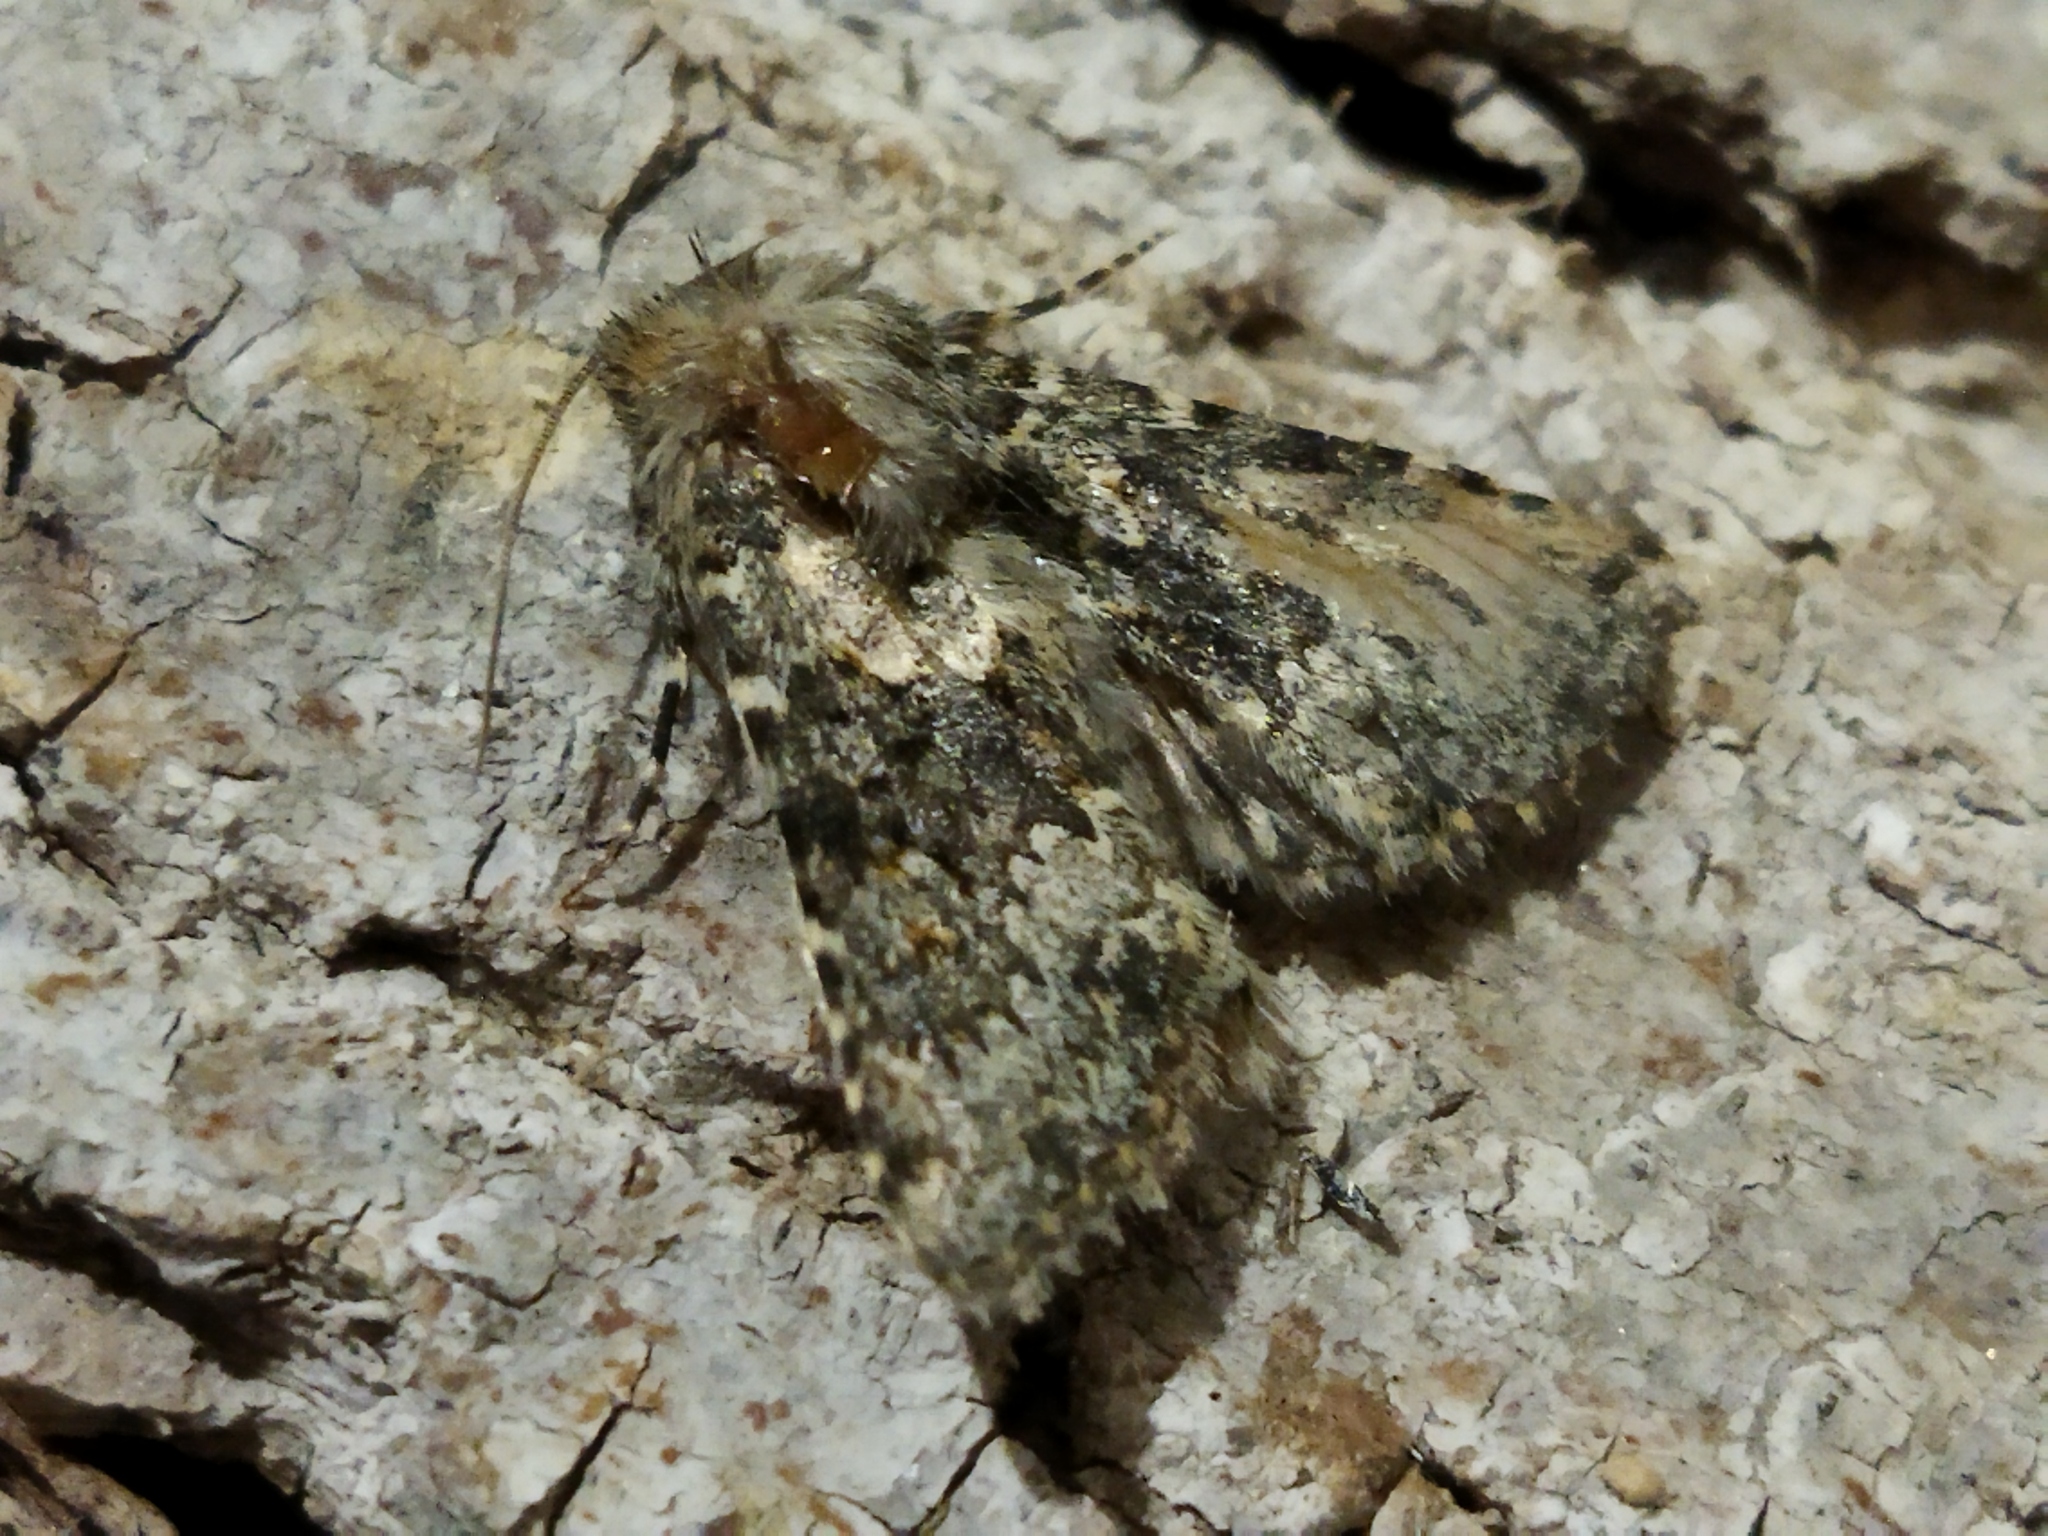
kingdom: Animalia
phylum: Arthropoda
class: Insecta
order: Lepidoptera
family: Noctuidae
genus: Hecatera
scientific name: Hecatera dysodea
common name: Small ranunculus
